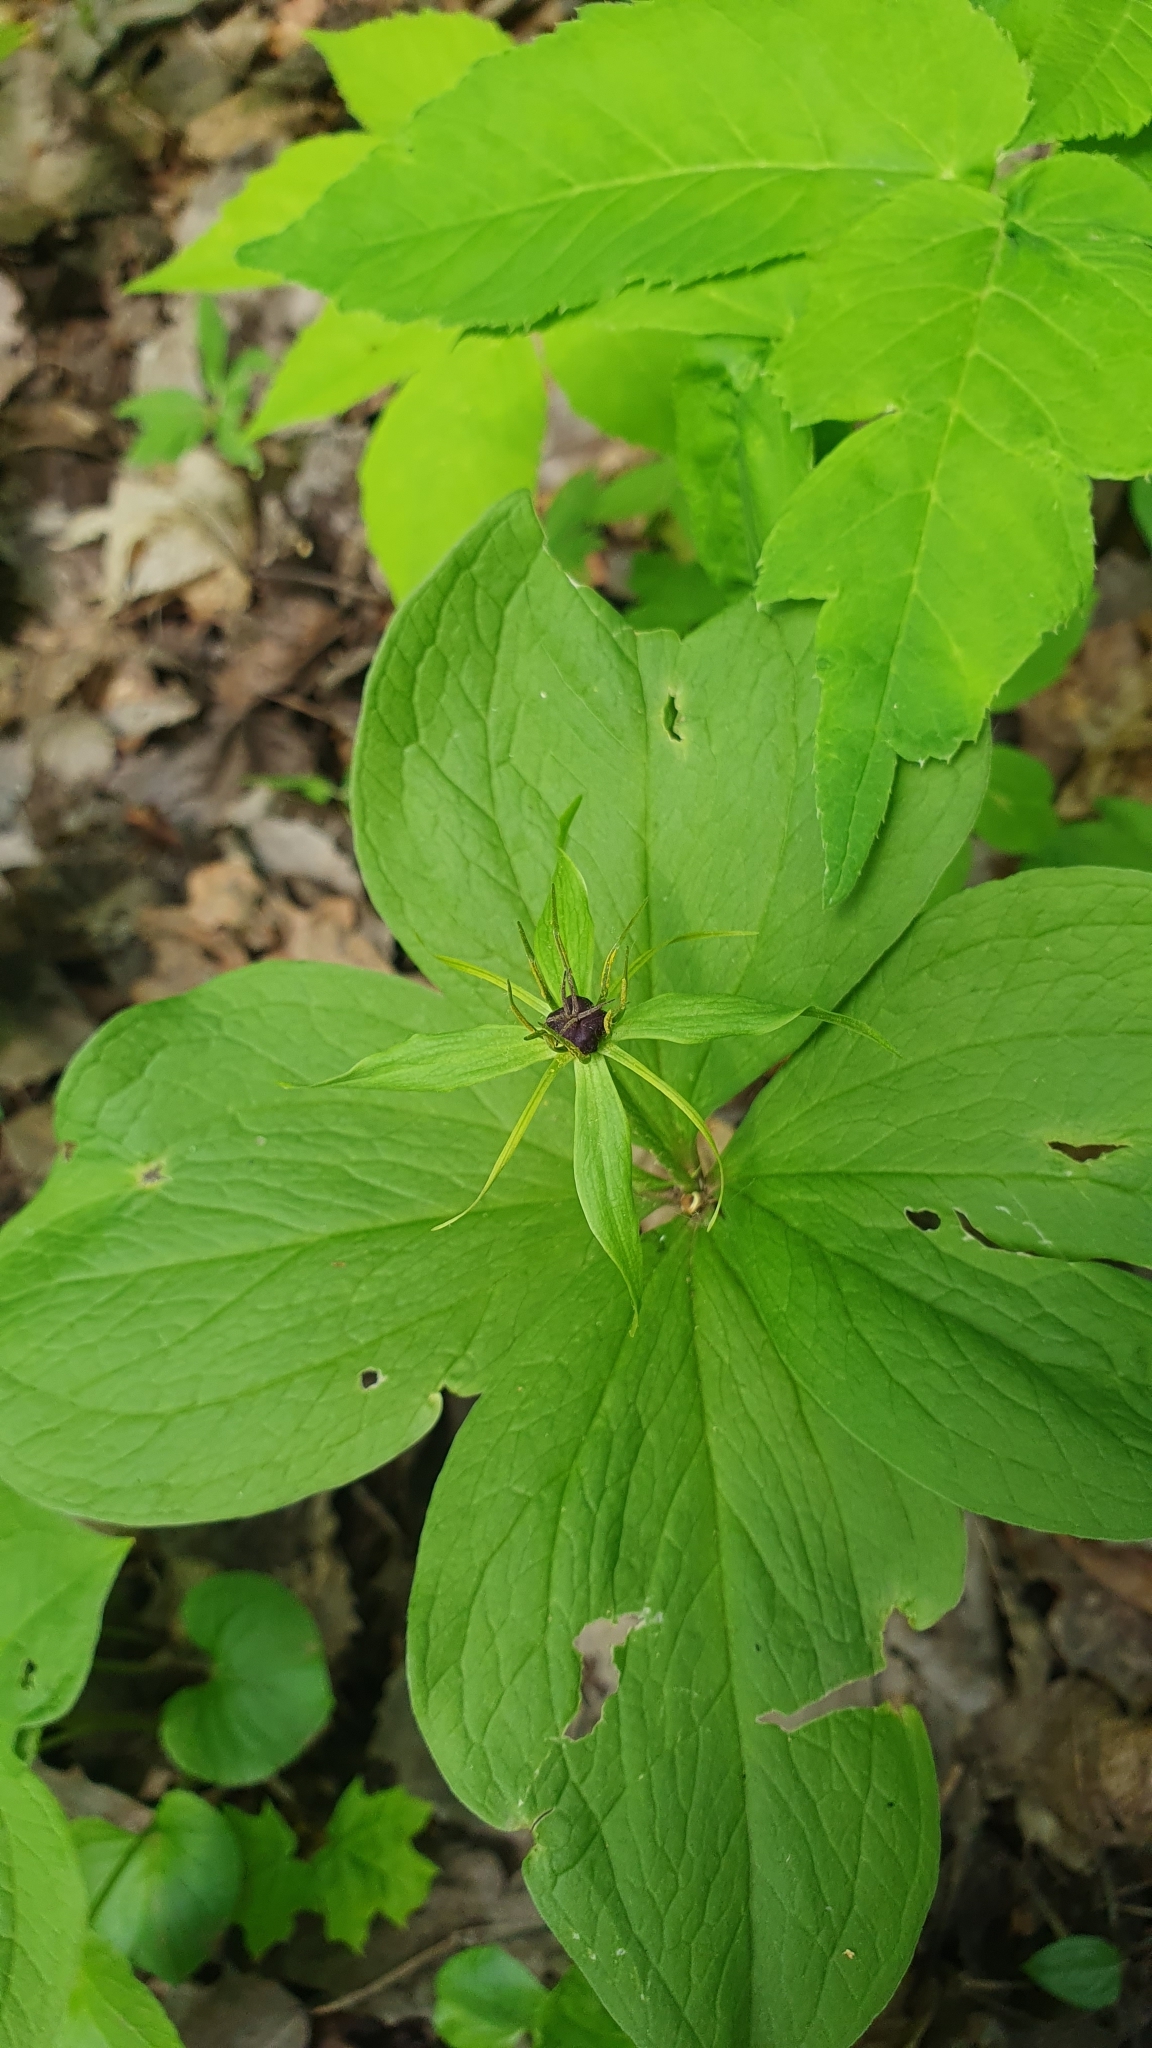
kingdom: Plantae
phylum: Tracheophyta
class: Liliopsida
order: Liliales
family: Melanthiaceae
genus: Paris
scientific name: Paris quadrifolia
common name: Herb-paris
